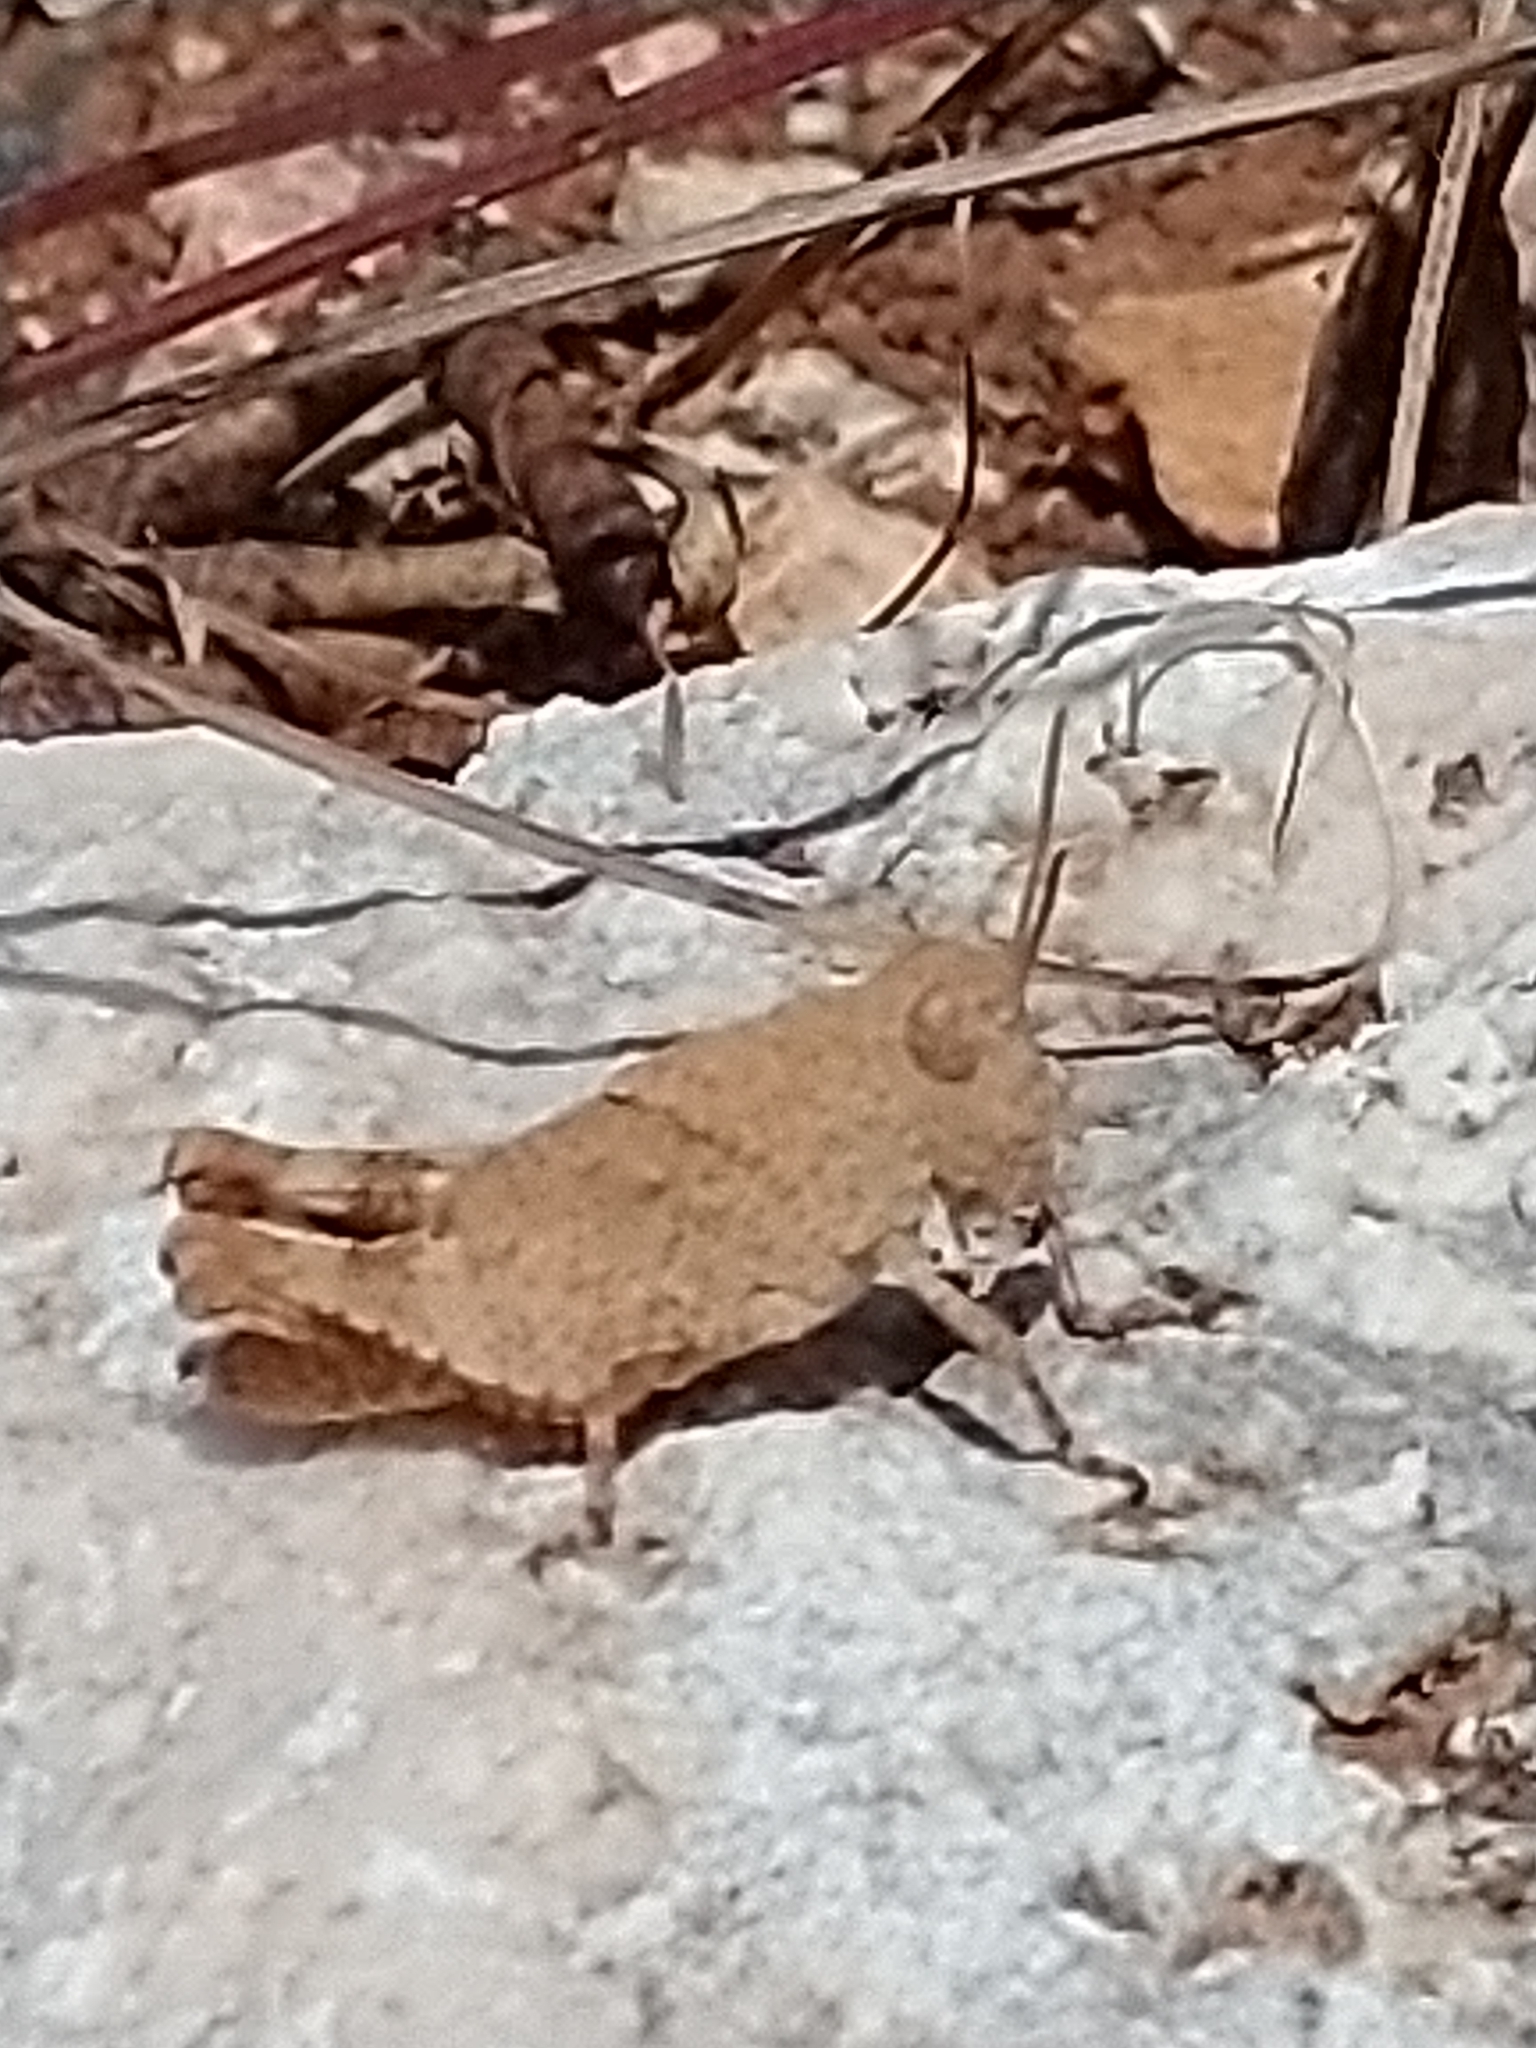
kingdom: Animalia
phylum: Arthropoda
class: Insecta
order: Orthoptera
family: Acrididae
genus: Oedipoda
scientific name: Oedipoda
